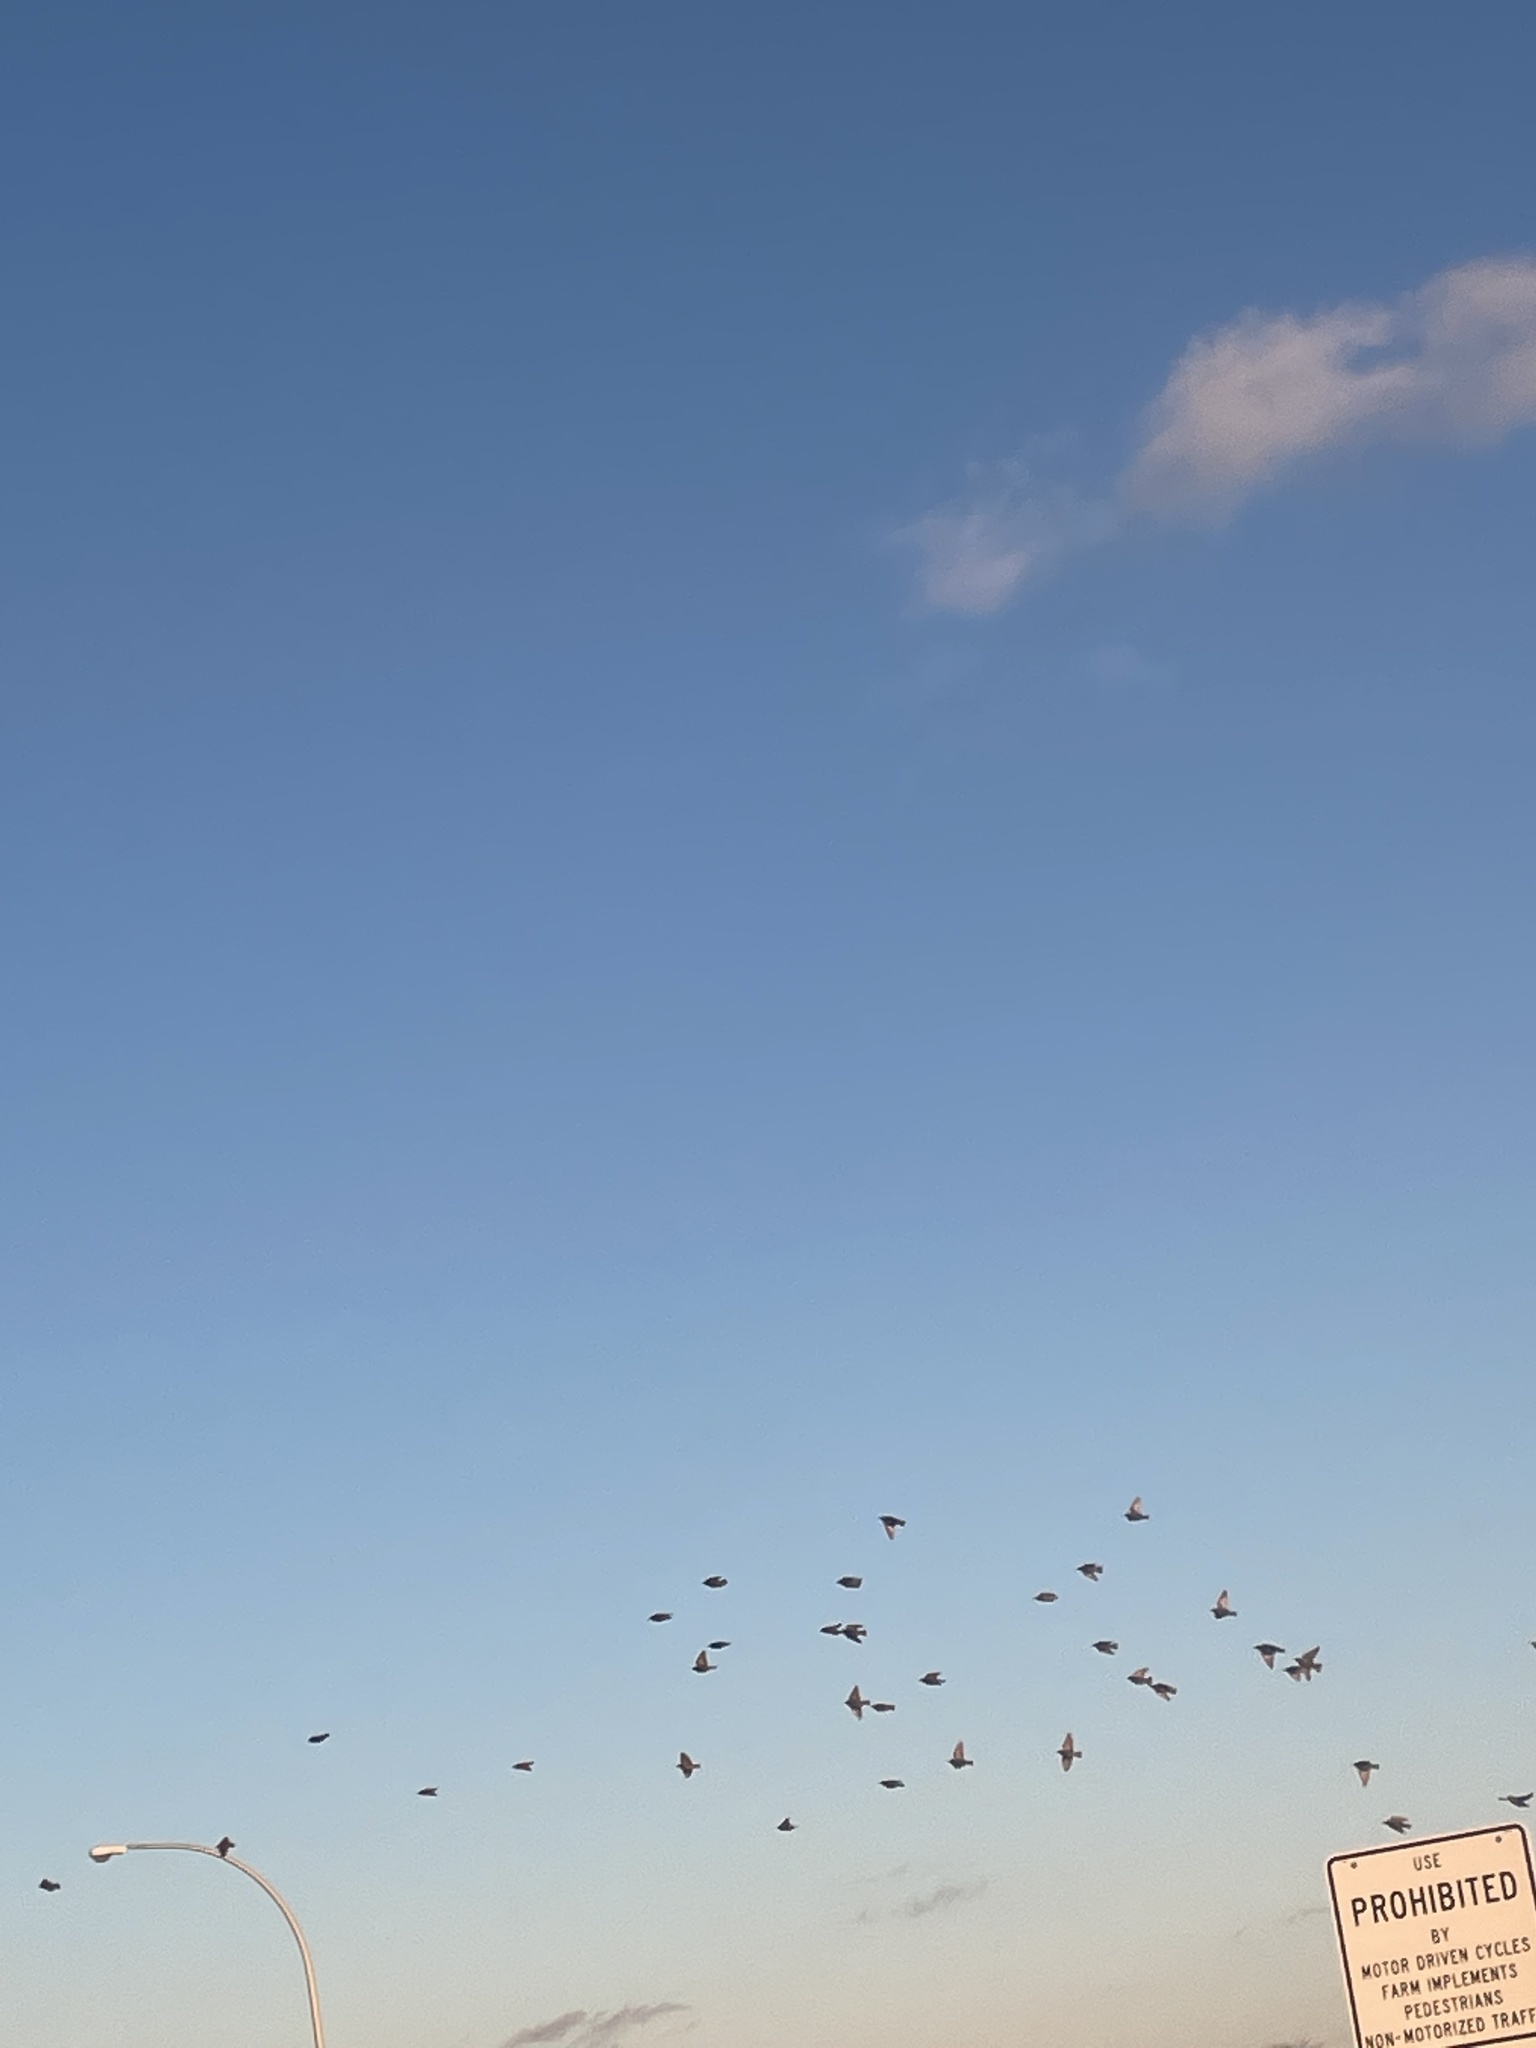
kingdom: Animalia
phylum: Chordata
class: Aves
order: Passeriformes
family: Sturnidae
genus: Sturnus
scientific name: Sturnus vulgaris
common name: Common starling
